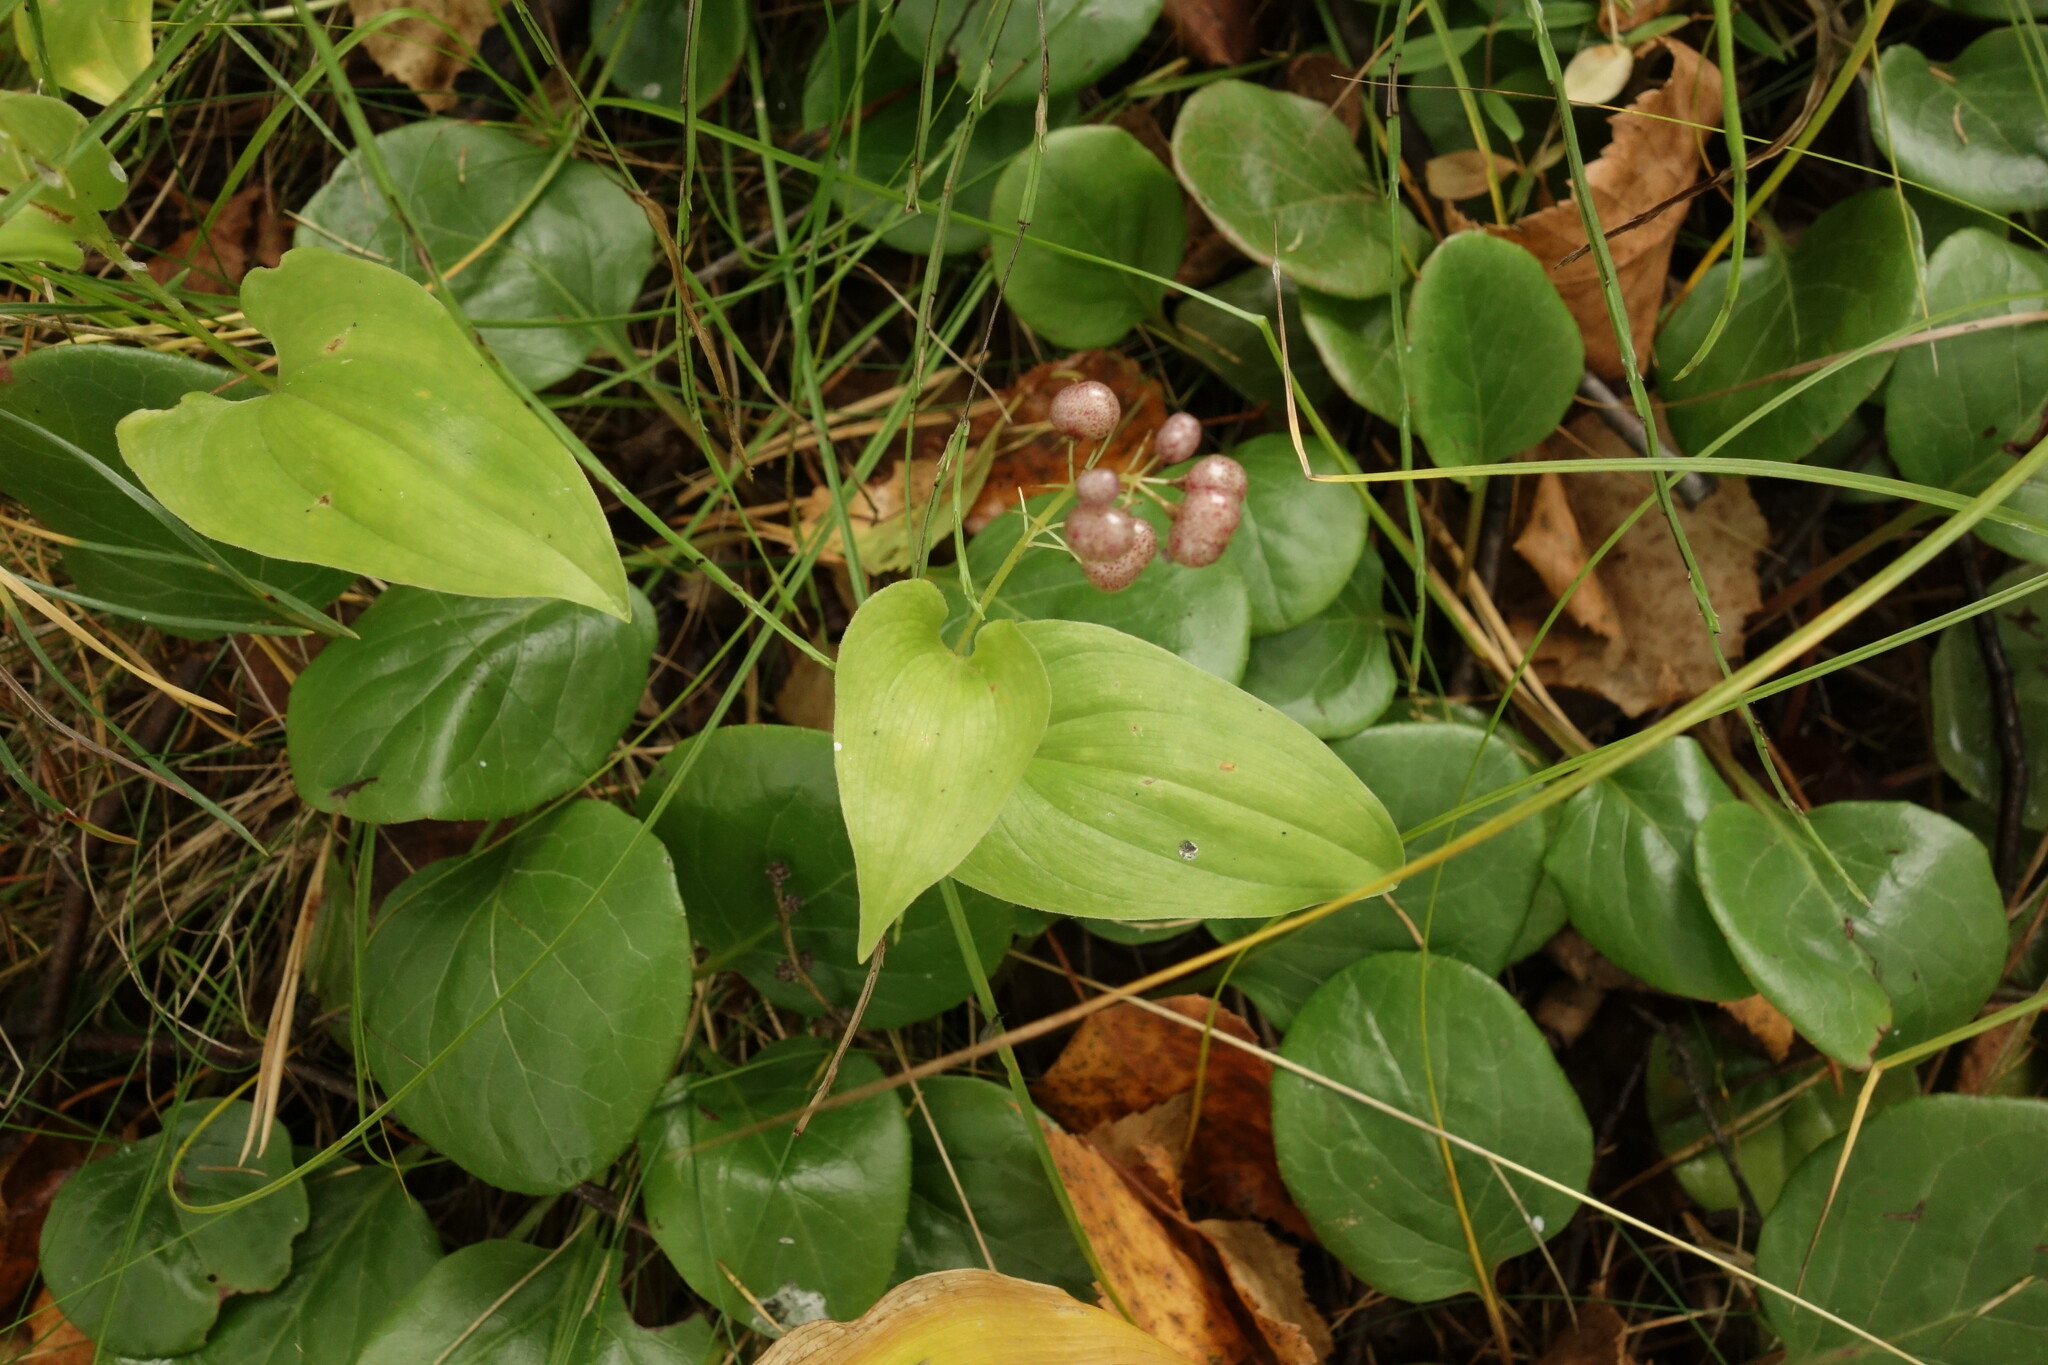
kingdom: Plantae
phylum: Tracheophyta
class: Liliopsida
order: Asparagales
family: Asparagaceae
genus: Maianthemum
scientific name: Maianthemum bifolium
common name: May lily
